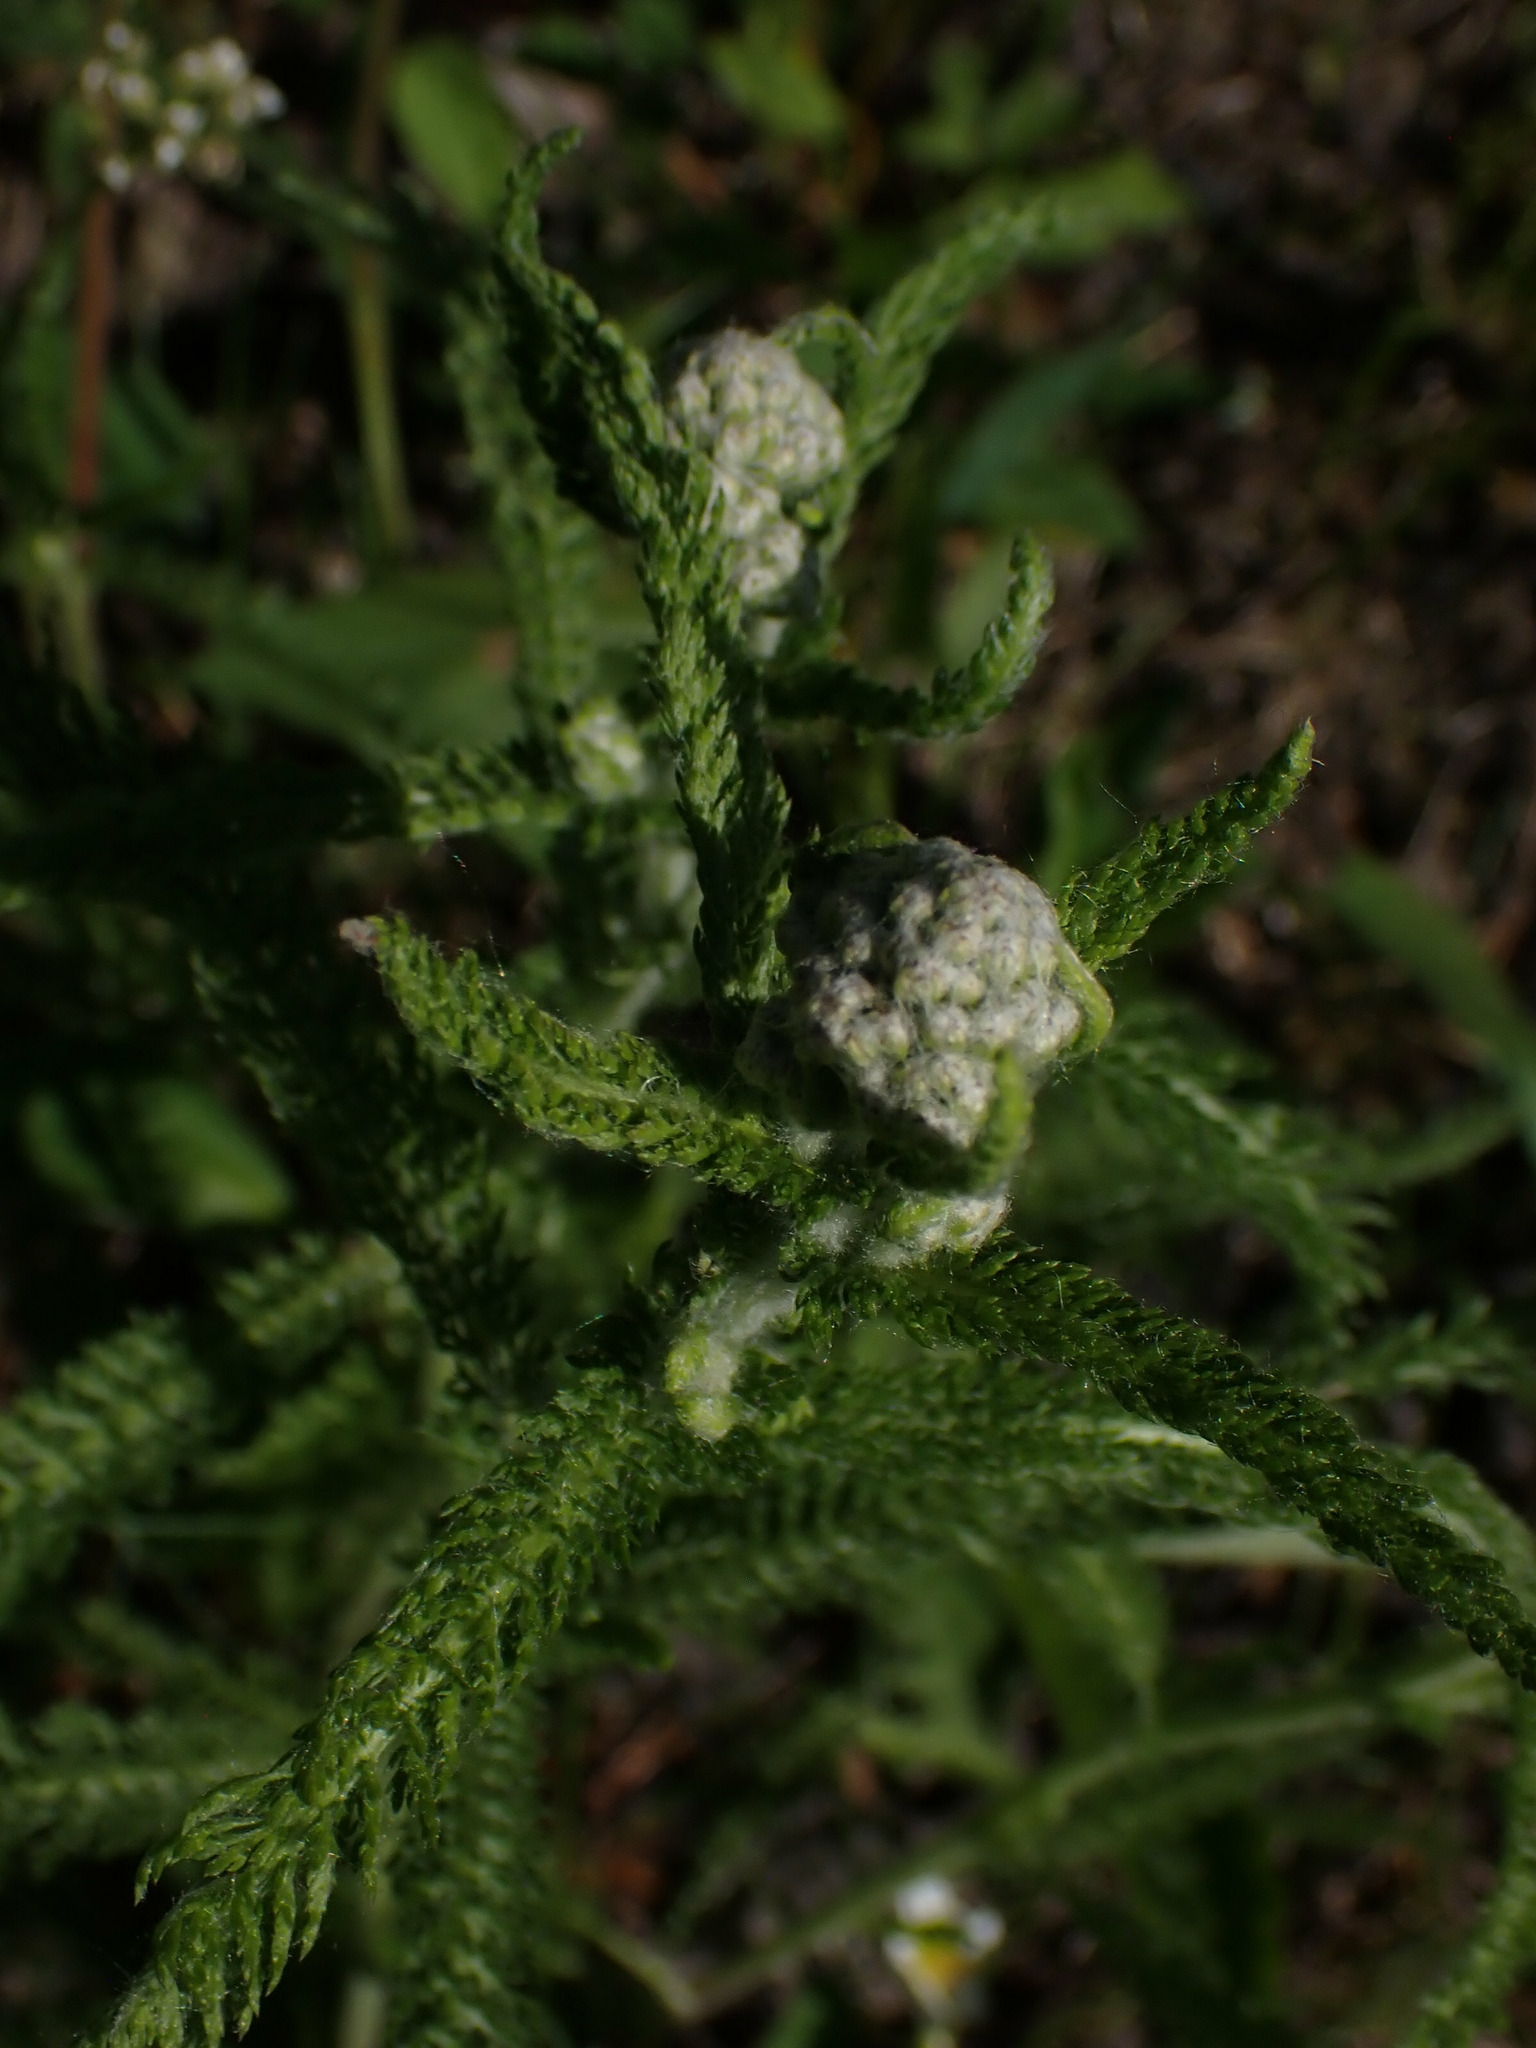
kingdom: Plantae
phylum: Tracheophyta
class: Magnoliopsida
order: Asterales
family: Asteraceae
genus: Achillea
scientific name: Achillea millefolium
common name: Yarrow
